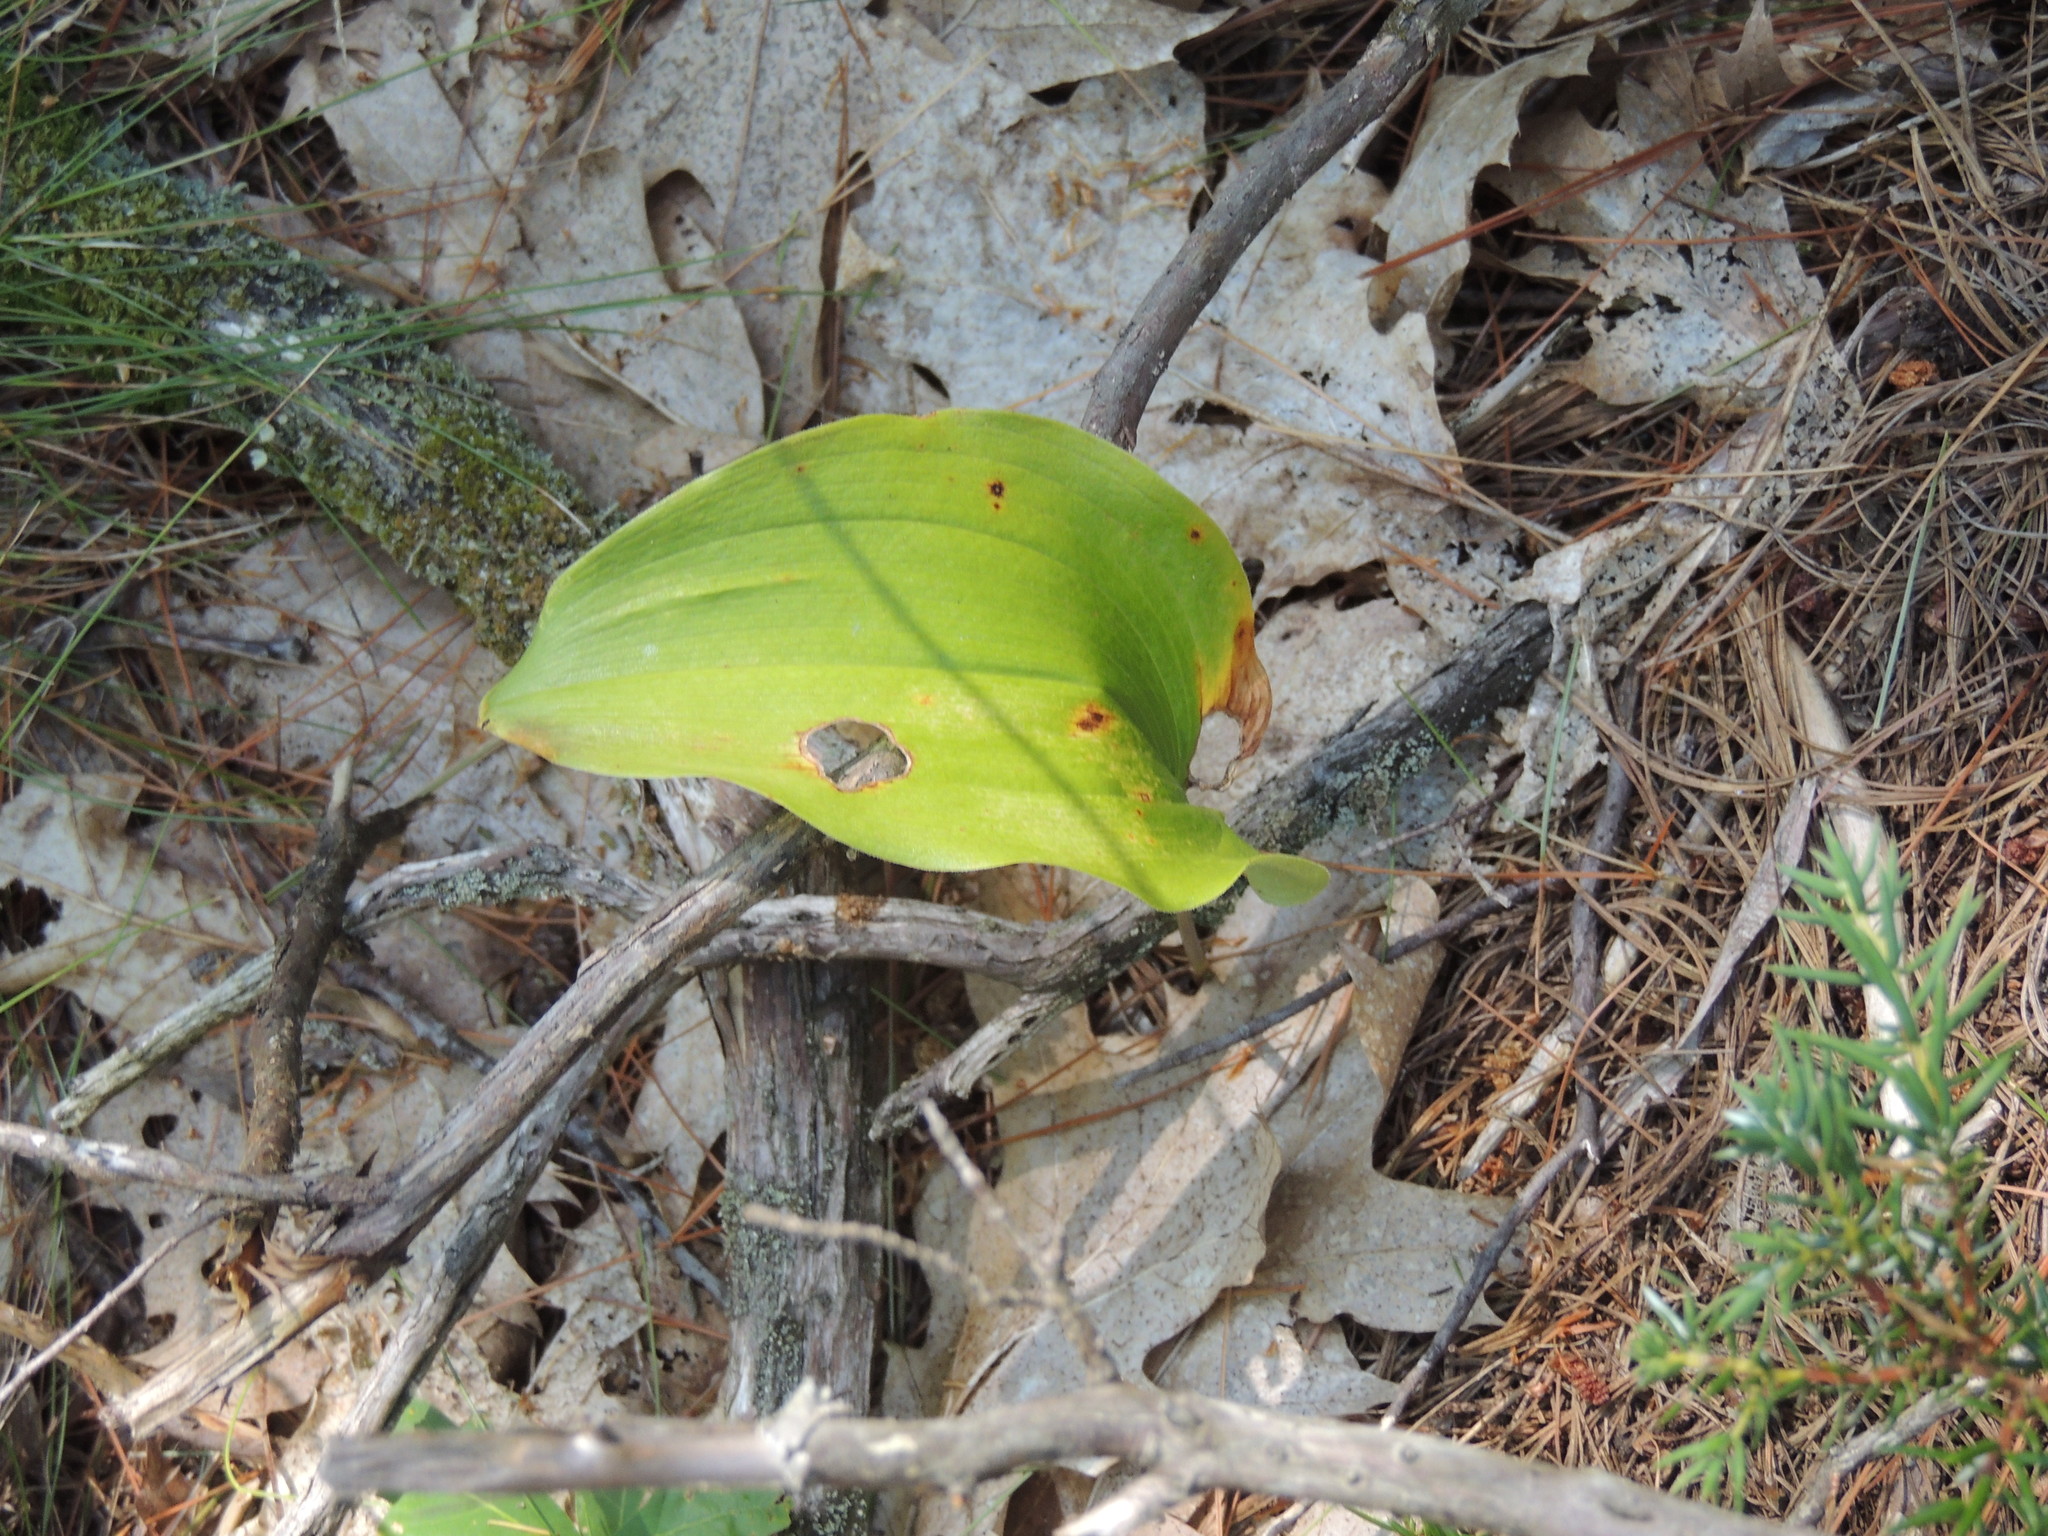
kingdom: Plantae
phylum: Tracheophyta
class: Liliopsida
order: Asparagales
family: Asparagaceae
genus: Maianthemum
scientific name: Maianthemum canadense
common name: False lily-of-the-valley
